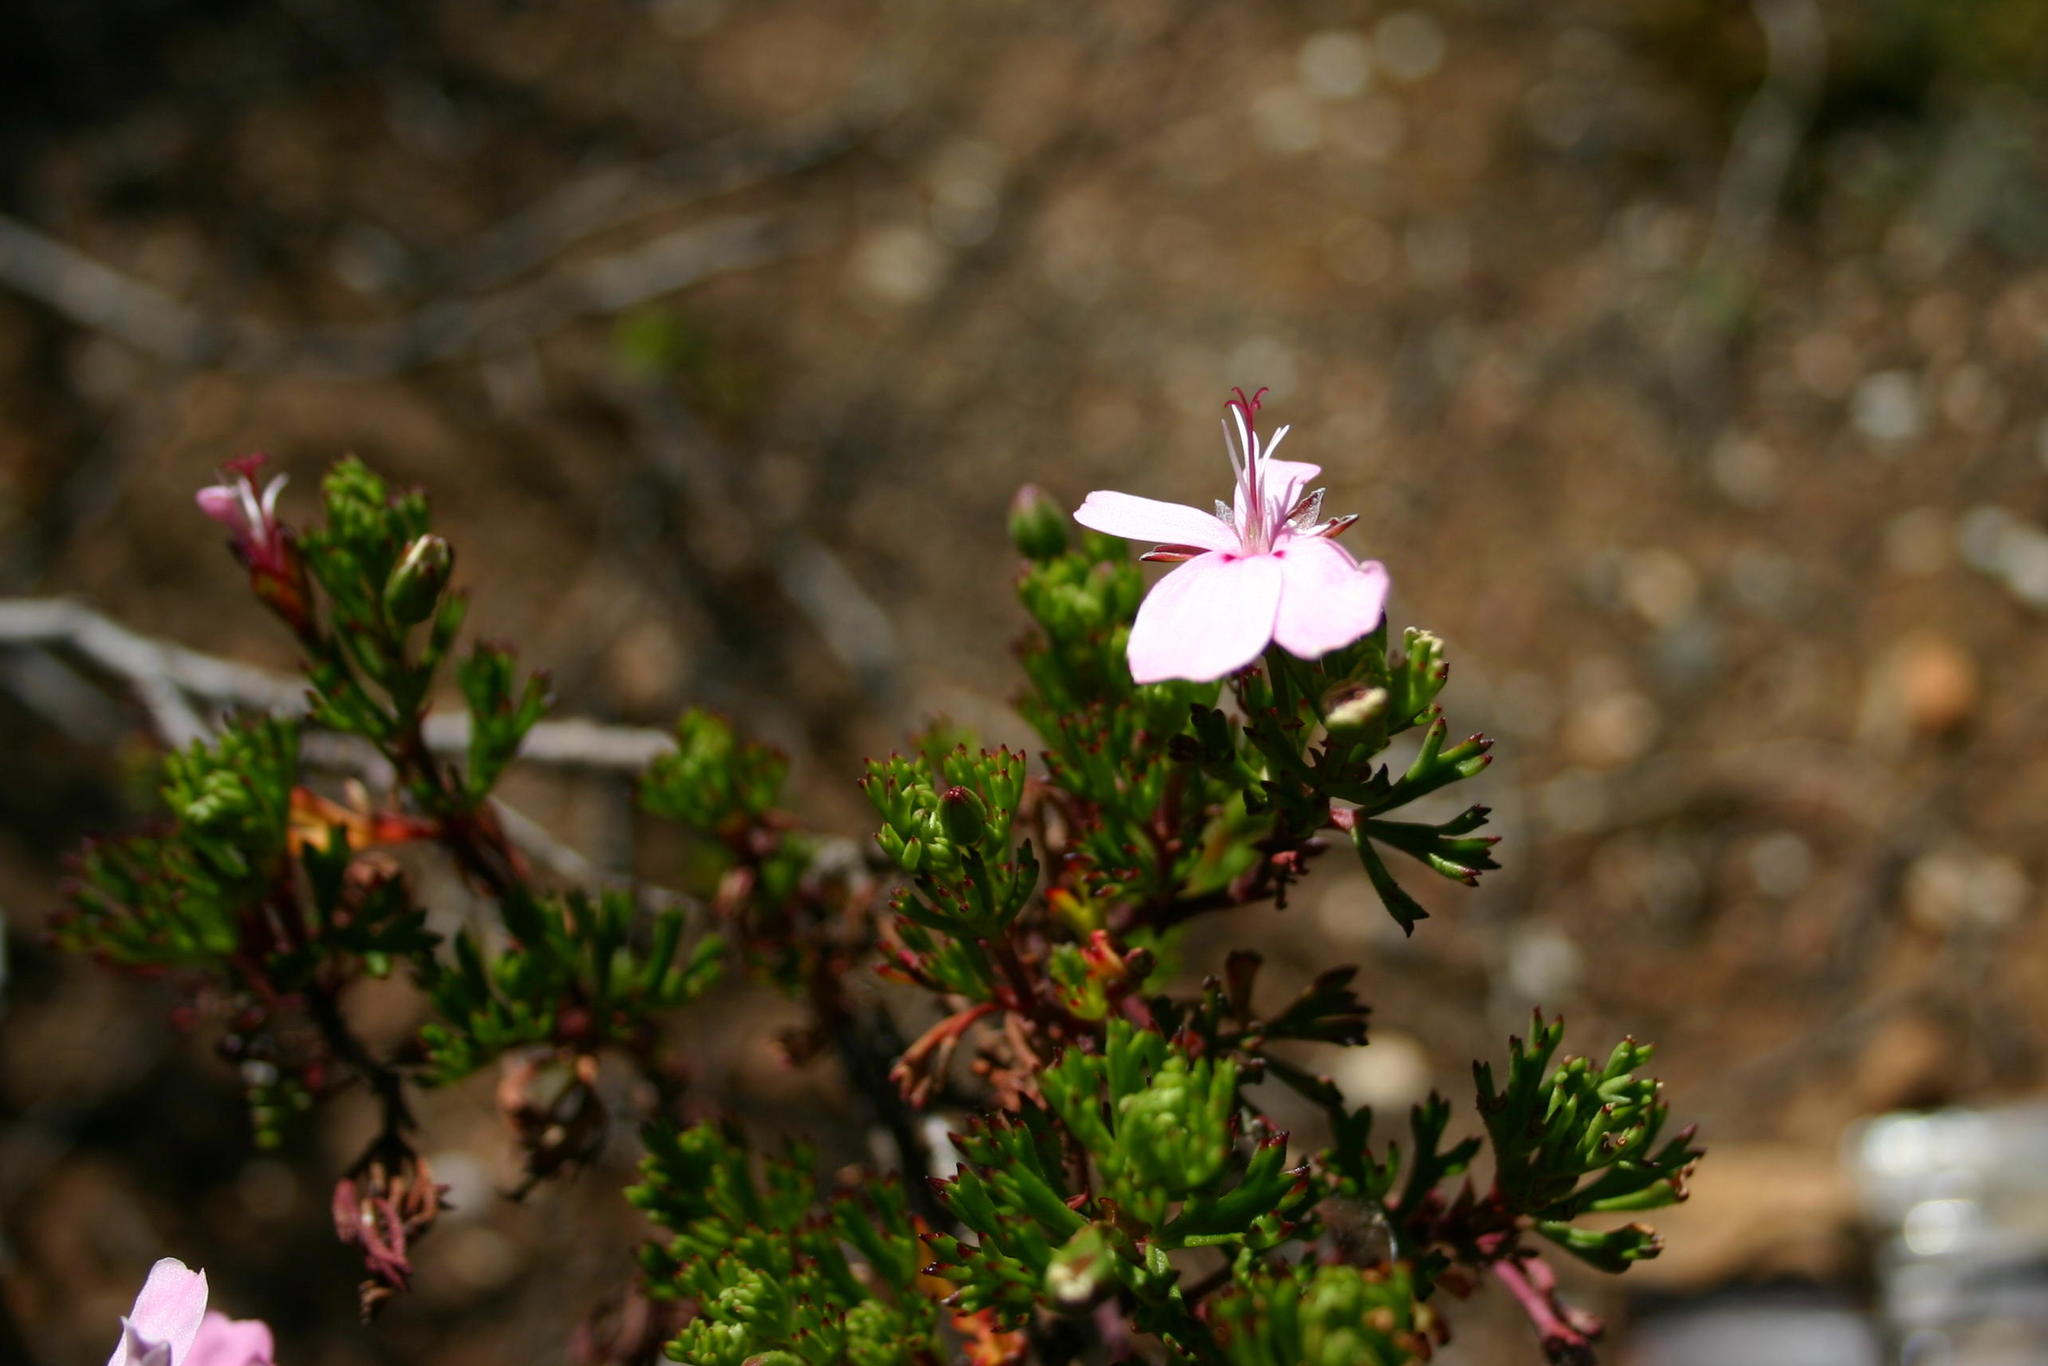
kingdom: Plantae
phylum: Tracheophyta
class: Magnoliopsida
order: Geraniales
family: Geraniaceae
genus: Pelargonium
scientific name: Pelargonium ternatum
